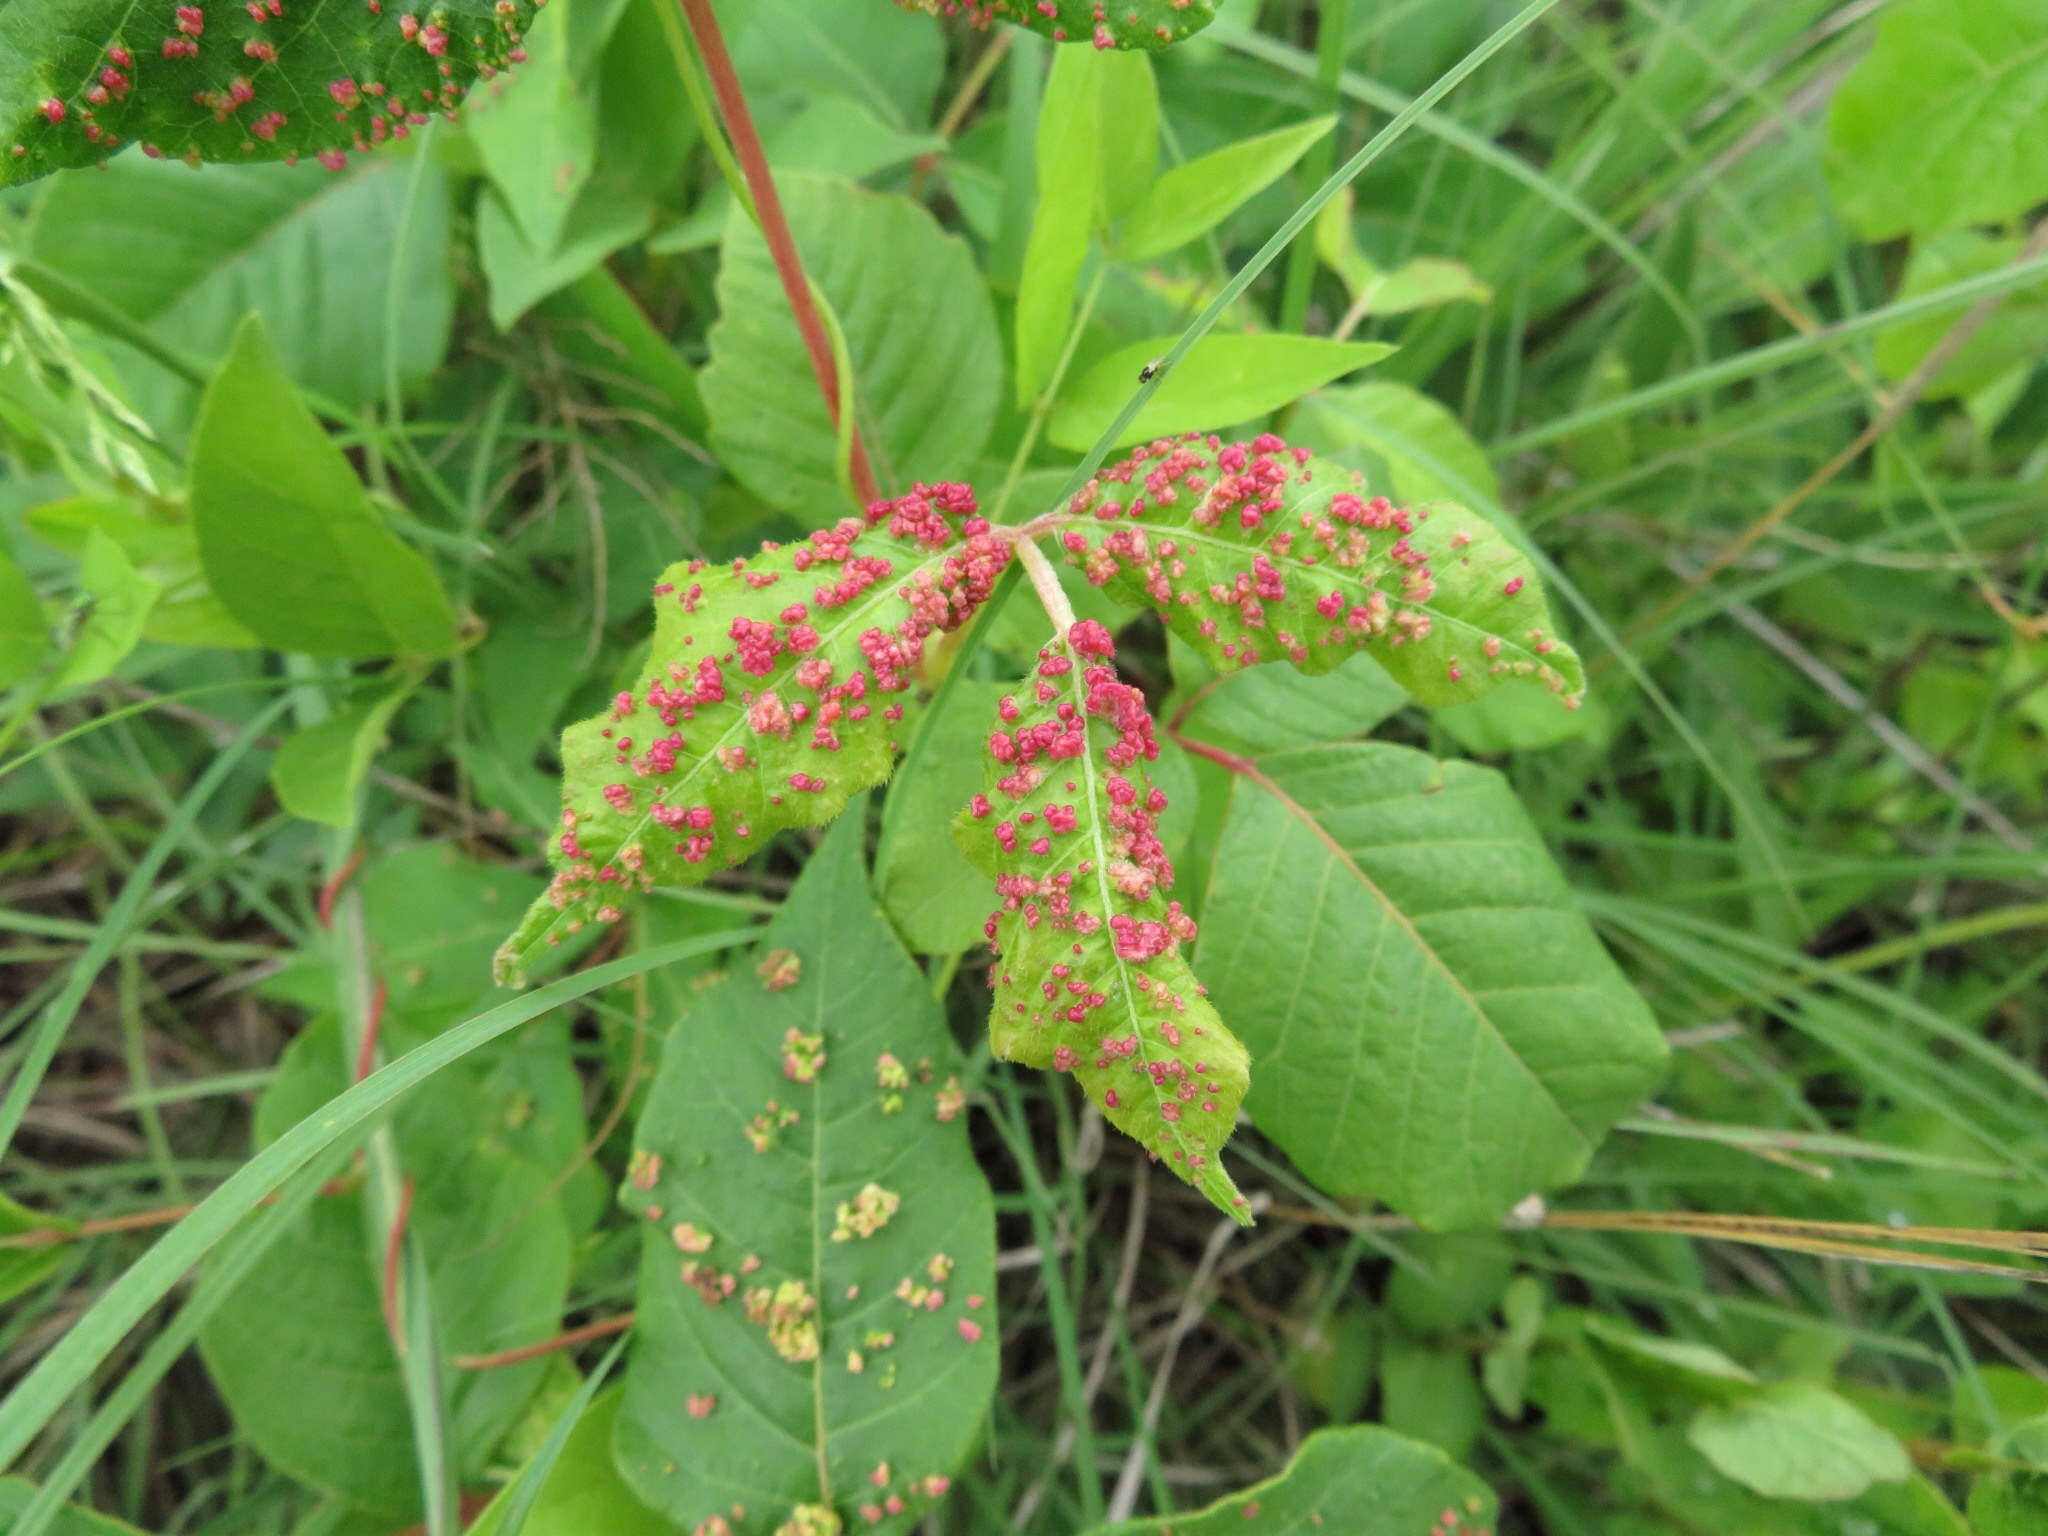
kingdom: Animalia
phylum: Arthropoda
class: Arachnida
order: Trombidiformes
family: Eriophyidae
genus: Aculops
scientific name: Aculops
